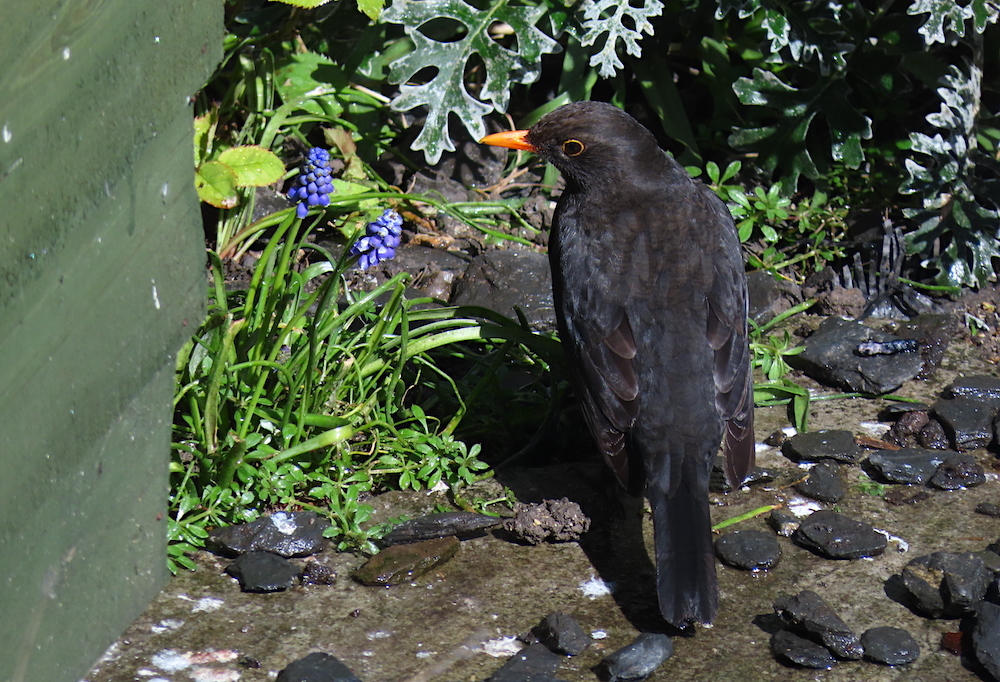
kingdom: Animalia
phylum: Chordata
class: Aves
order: Passeriformes
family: Turdidae
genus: Turdus
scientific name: Turdus merula
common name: Common blackbird
